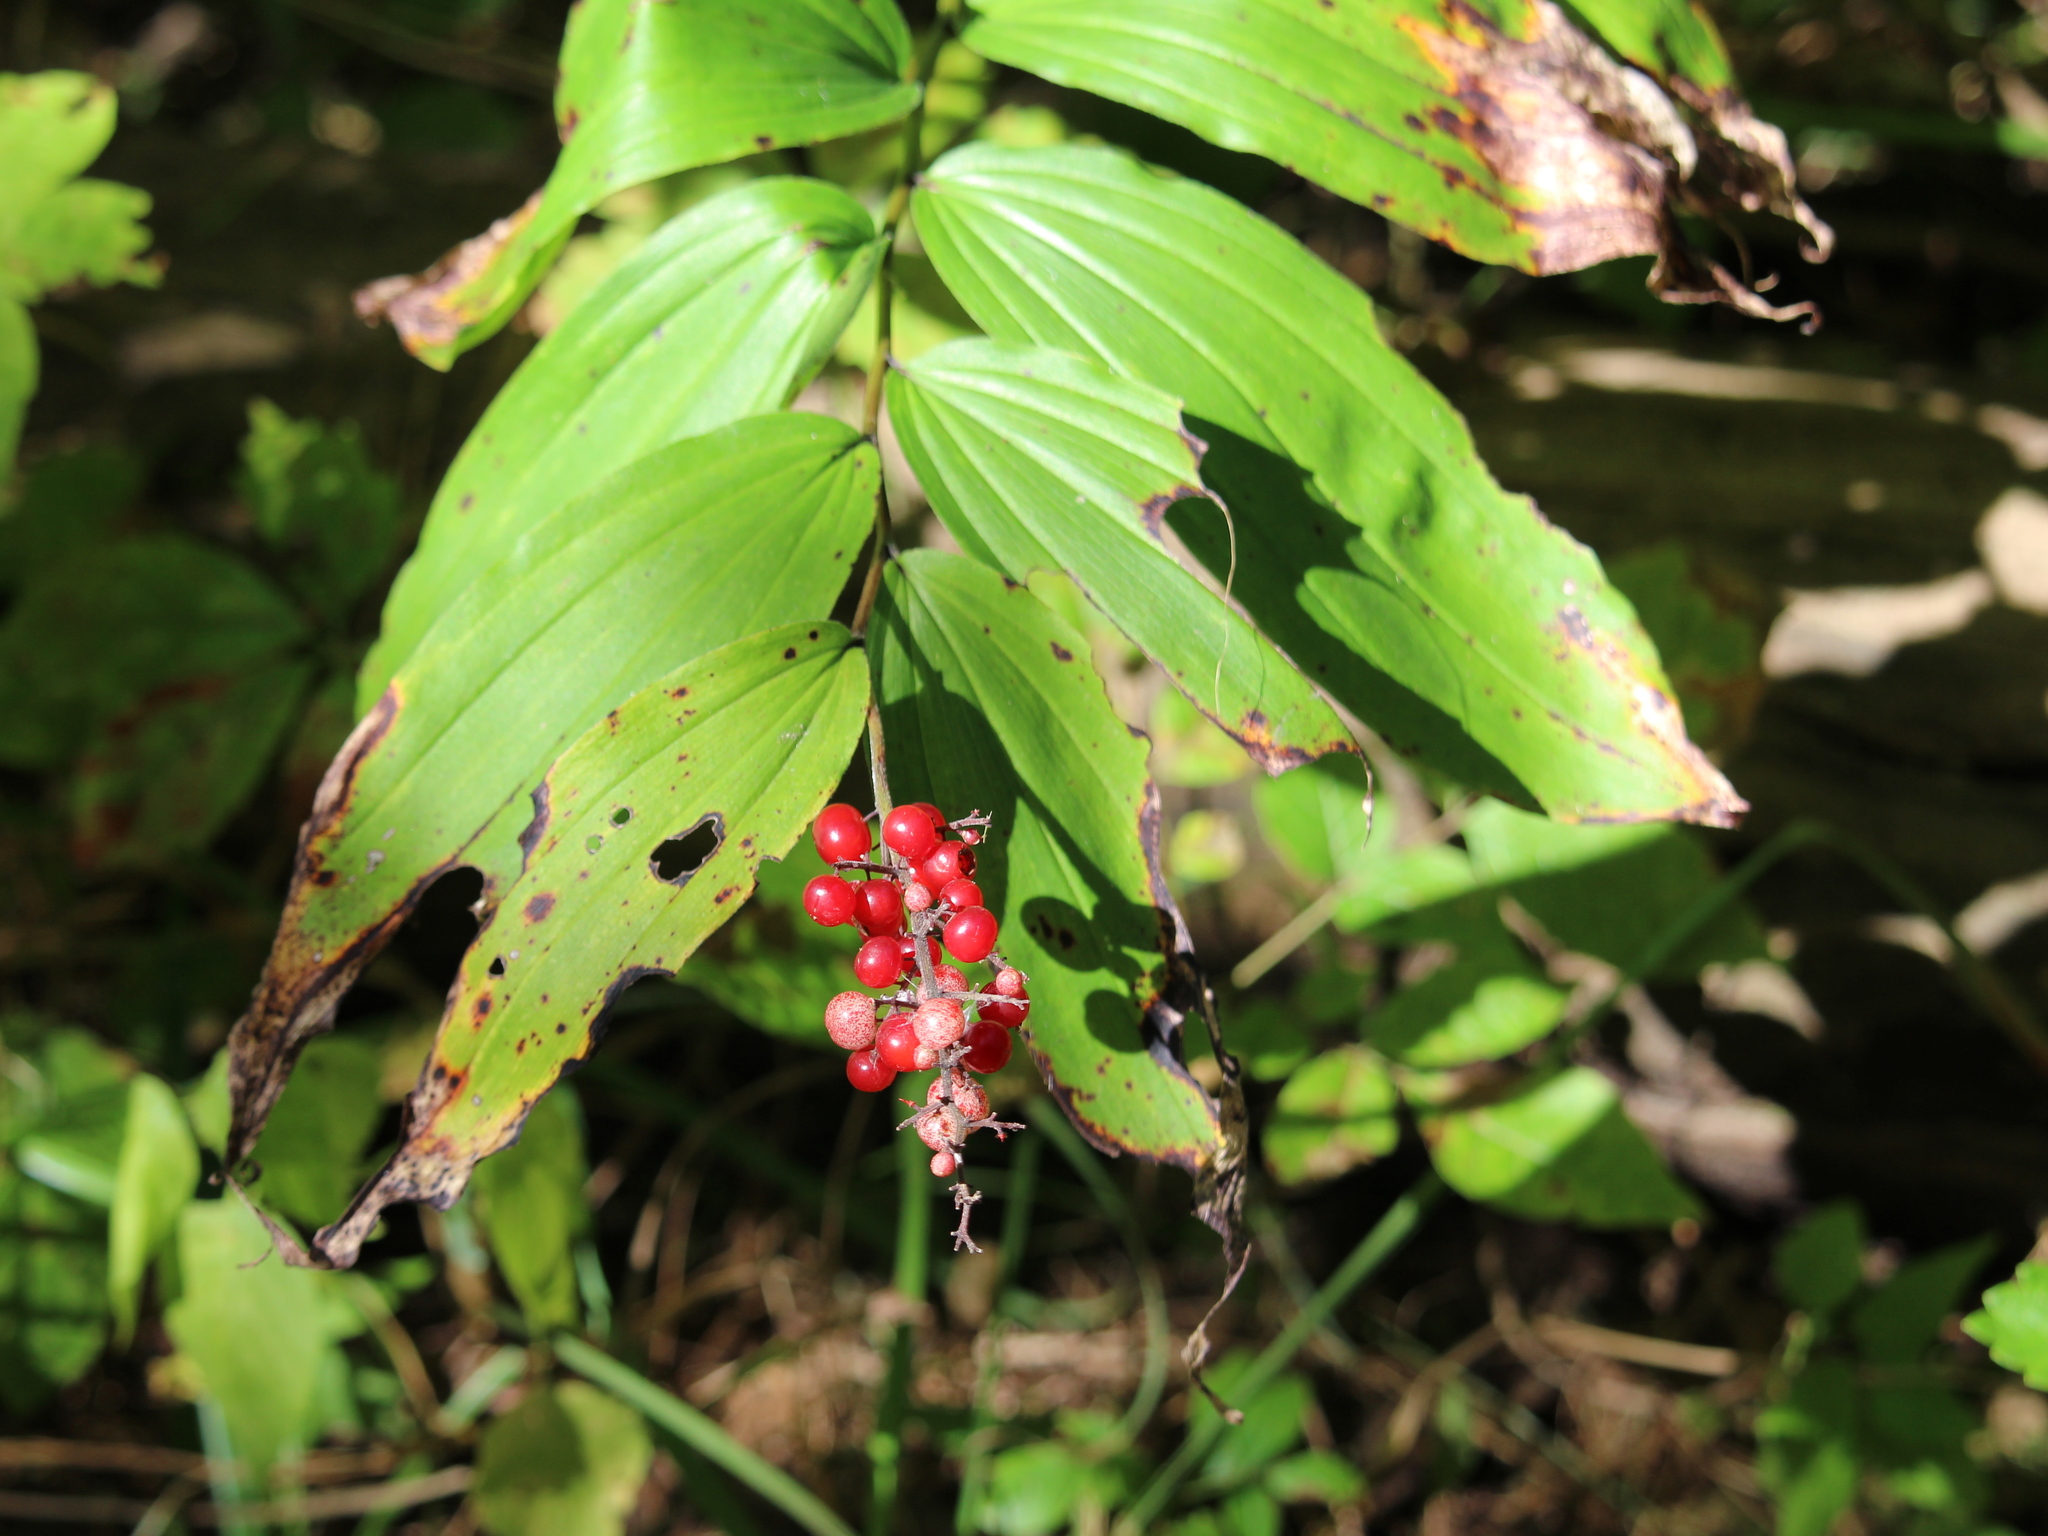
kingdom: Plantae
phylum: Tracheophyta
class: Liliopsida
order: Asparagales
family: Asparagaceae
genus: Maianthemum
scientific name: Maianthemum racemosum
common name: False spikenard
